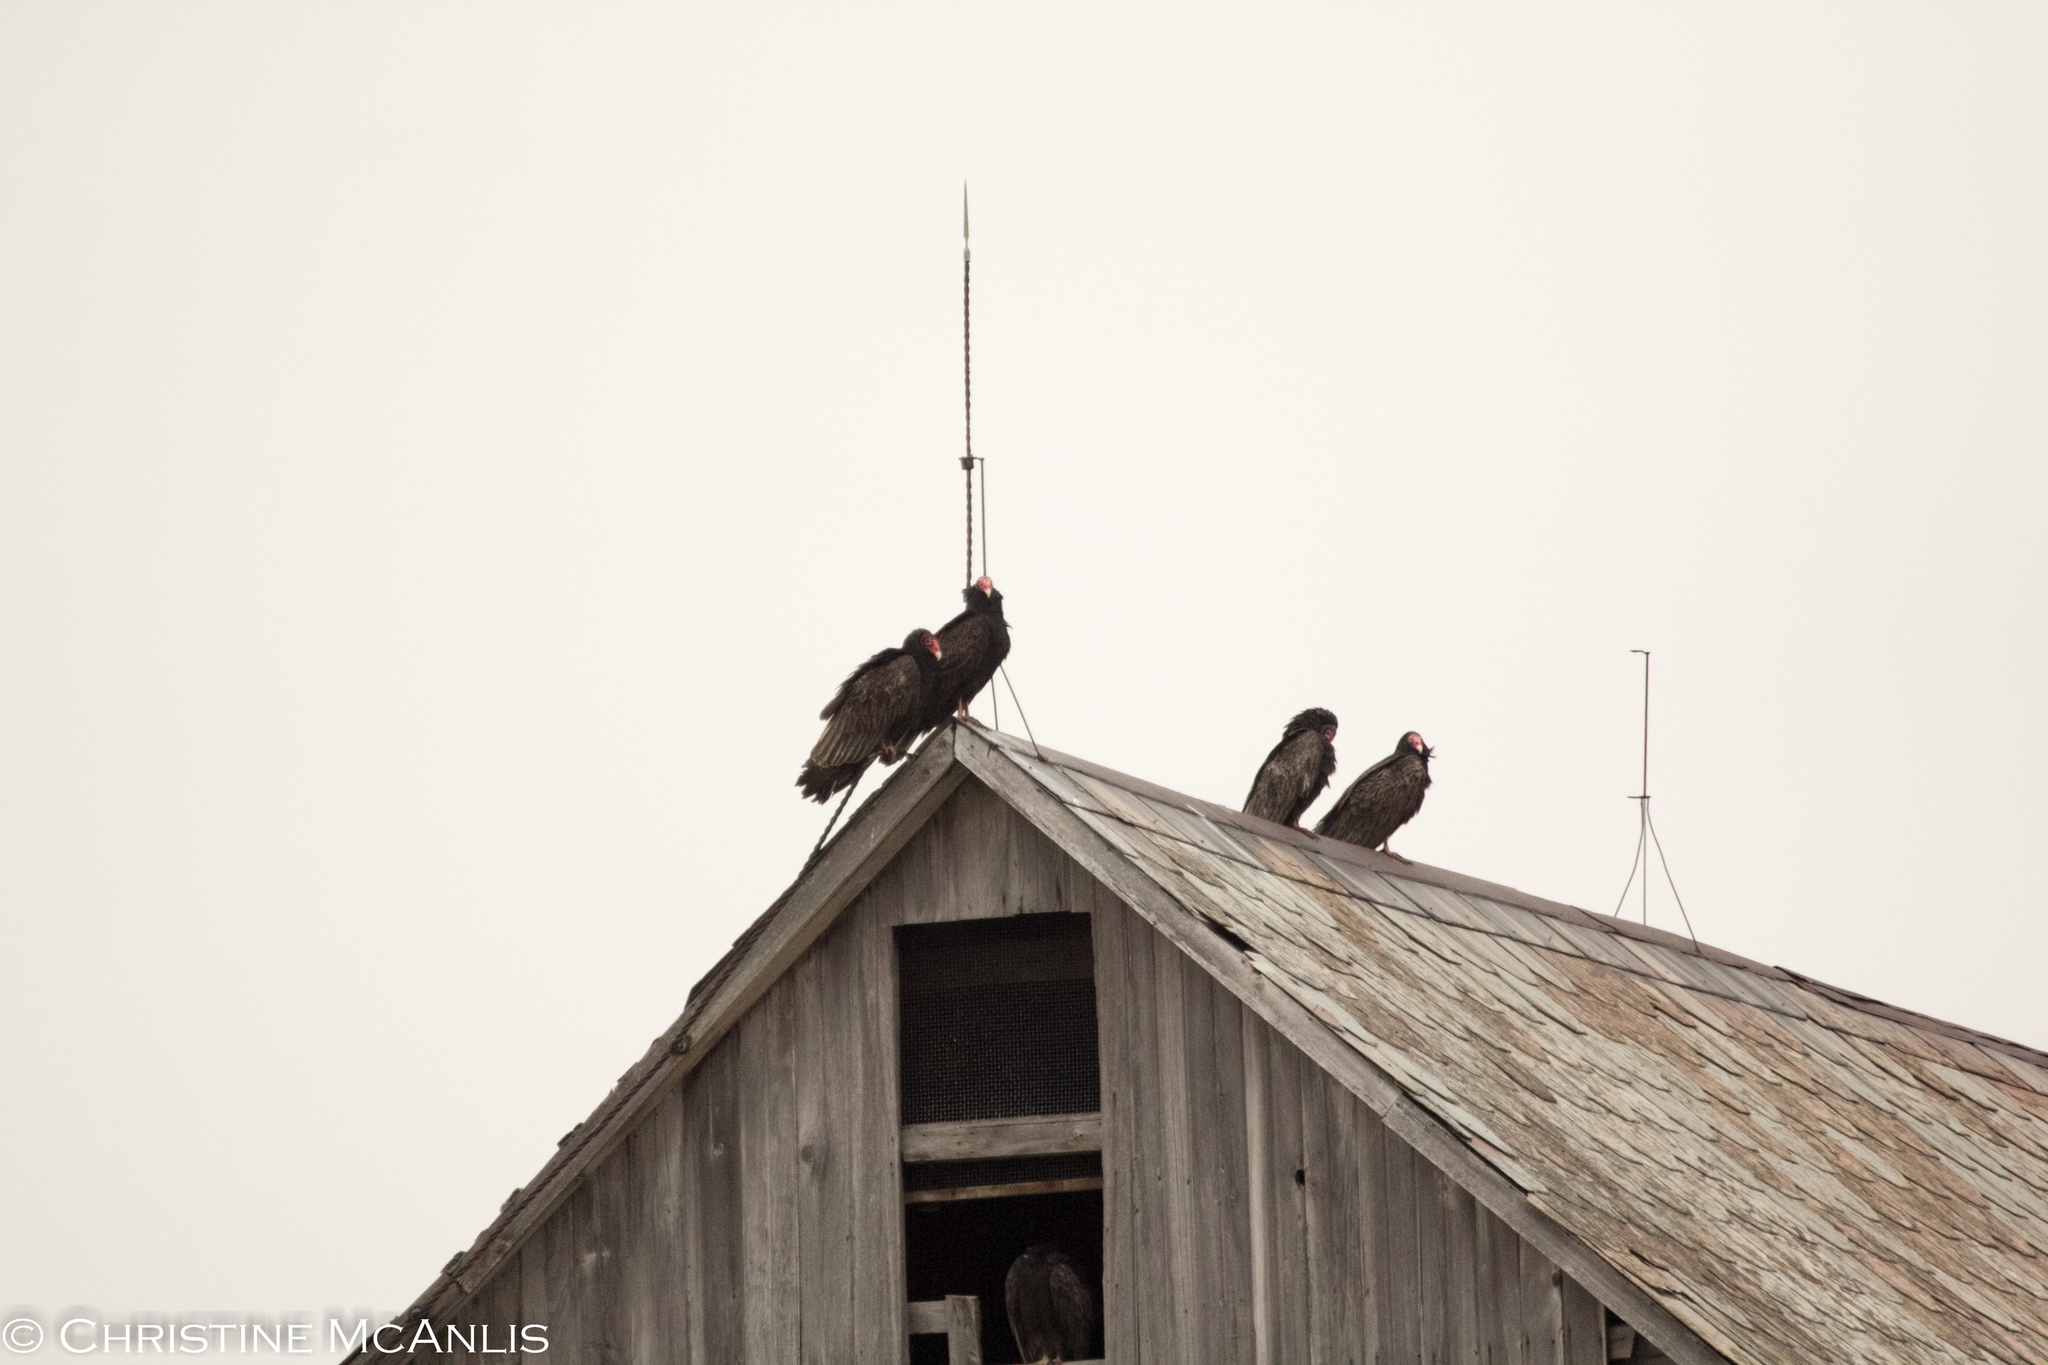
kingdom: Animalia
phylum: Chordata
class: Aves
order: Accipitriformes
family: Cathartidae
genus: Cathartes
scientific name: Cathartes aura
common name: Turkey vulture
